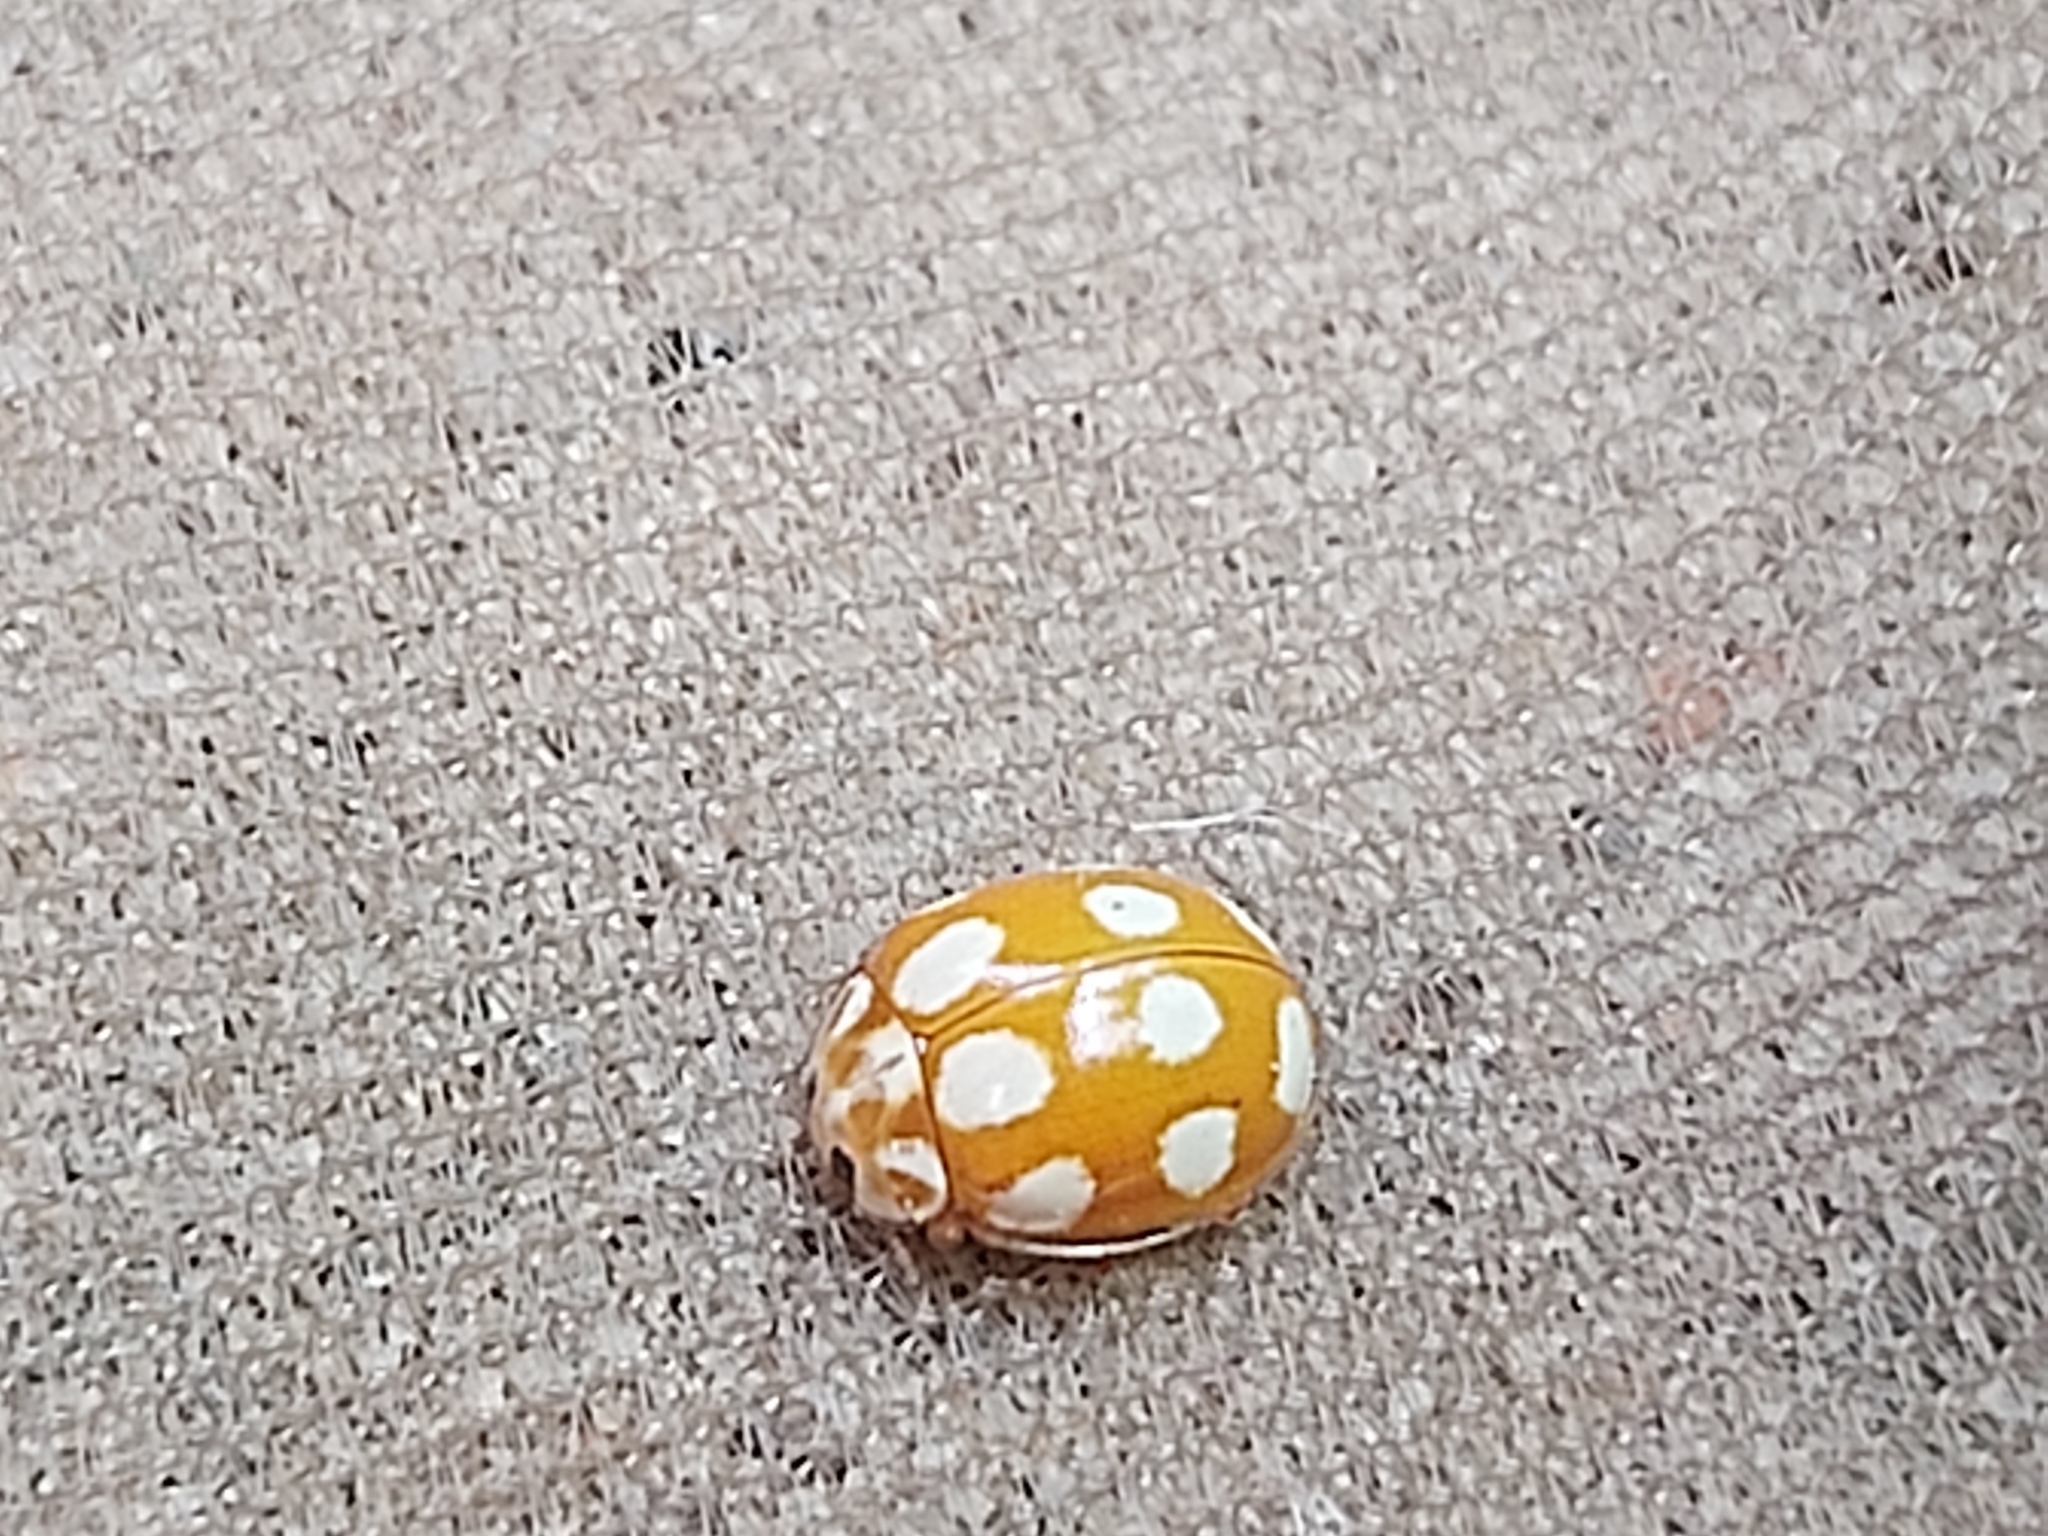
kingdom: Animalia
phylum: Arthropoda
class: Insecta
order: Coleoptera
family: Coccinellidae
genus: Calvia
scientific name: Calvia decemguttata
